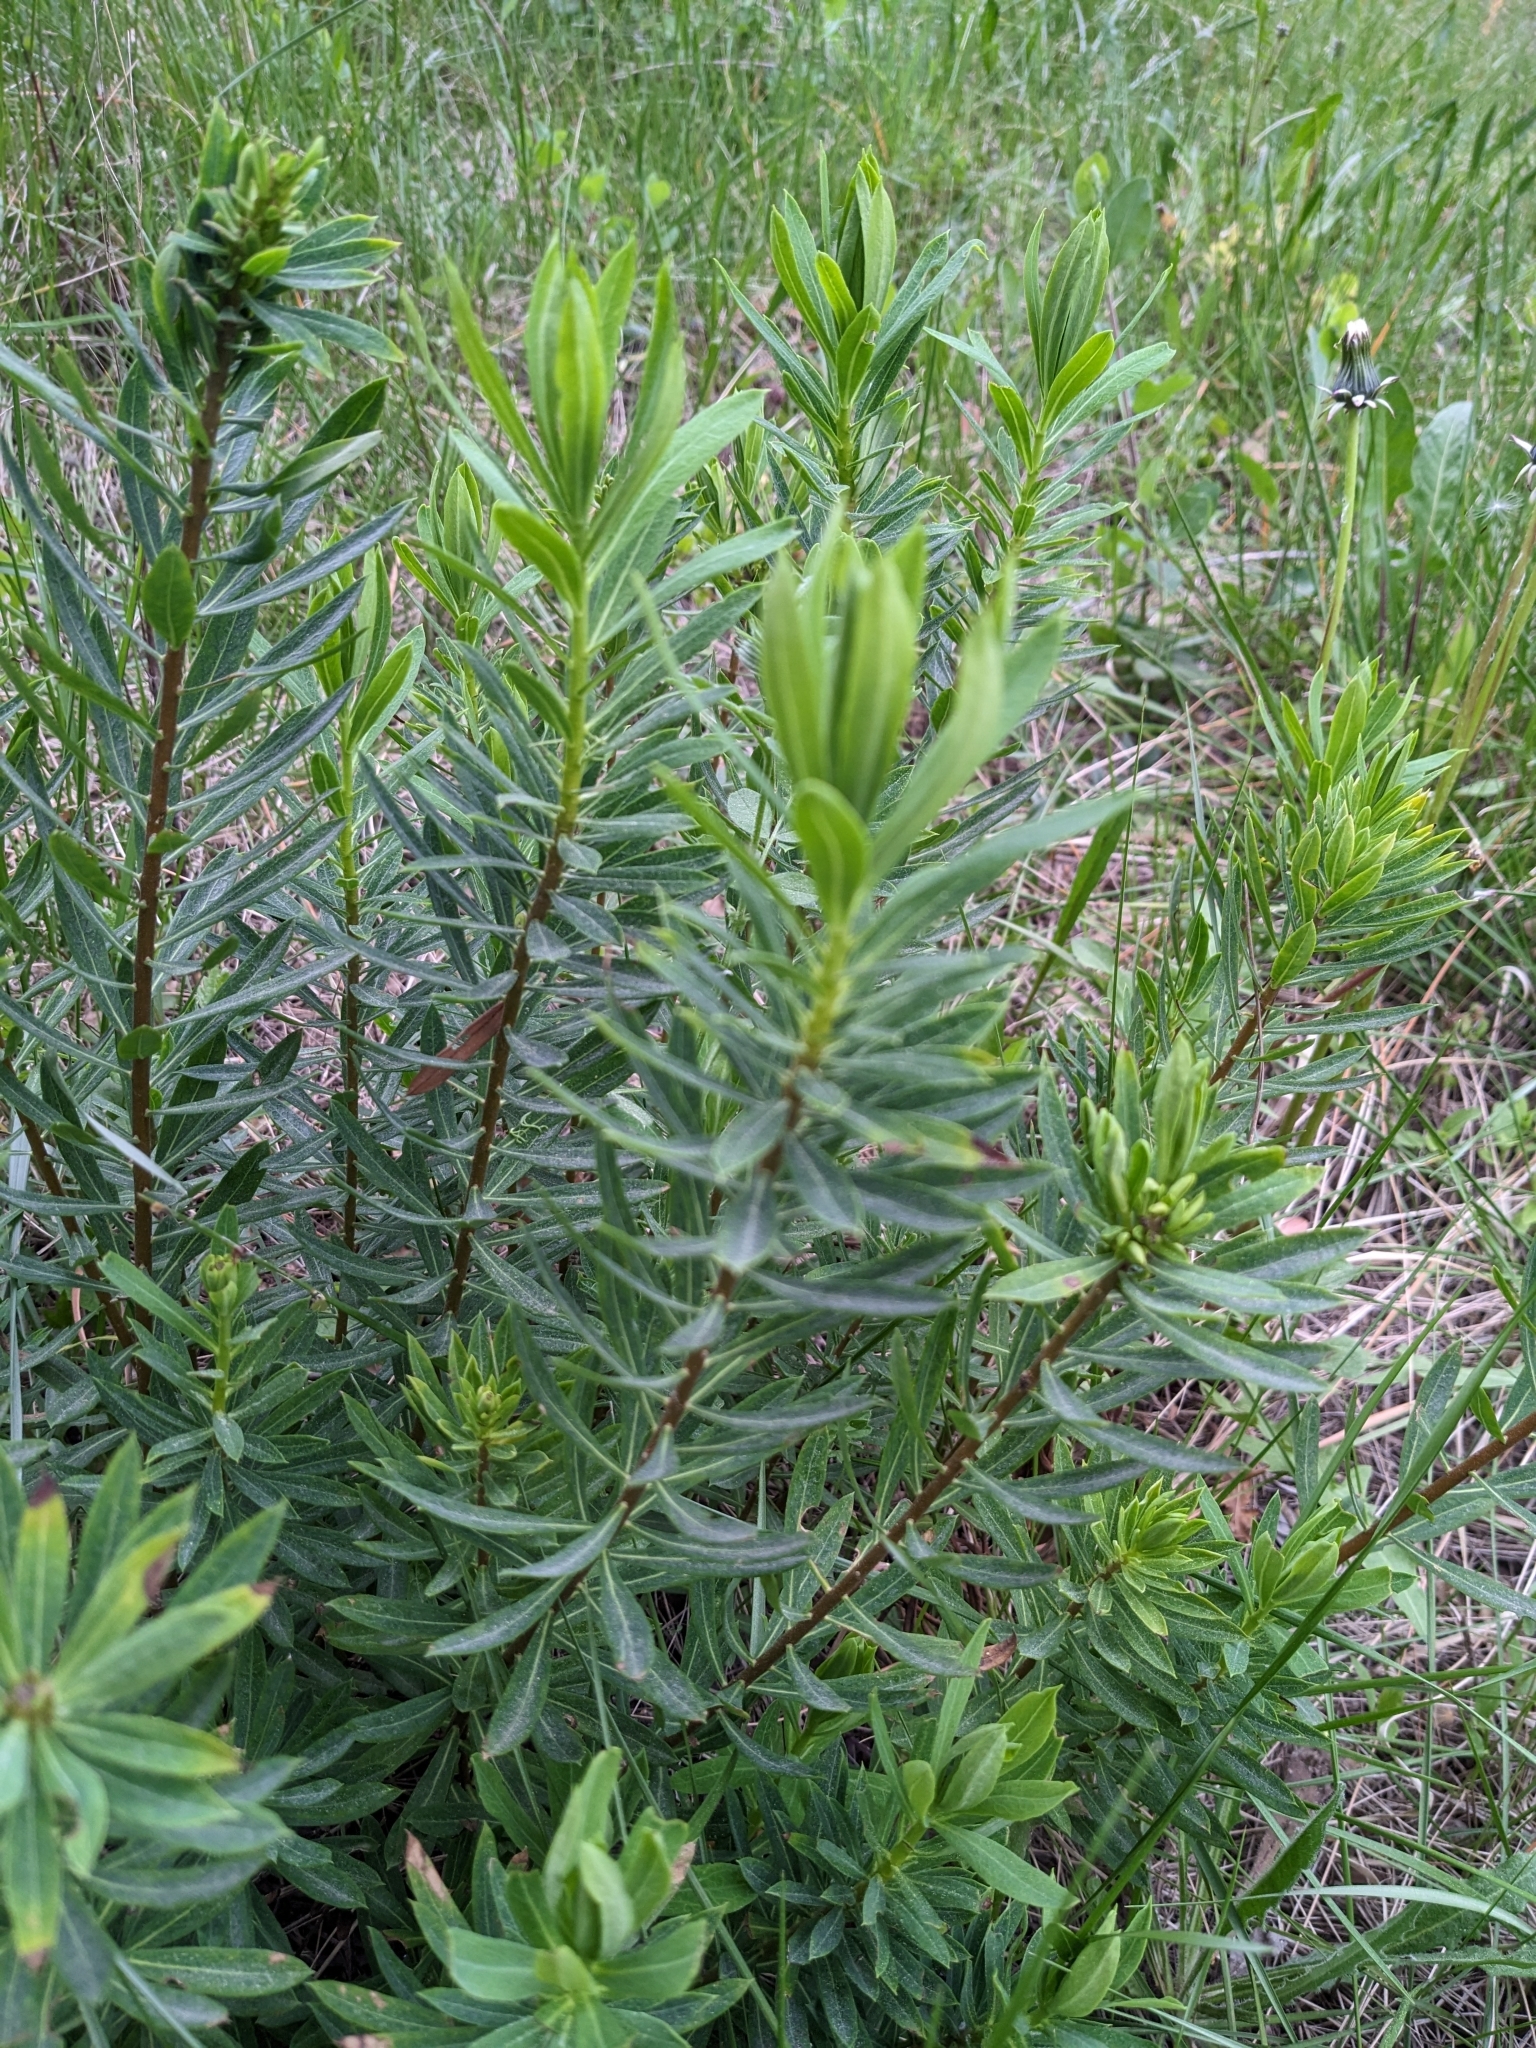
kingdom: Plantae
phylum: Tracheophyta
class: Magnoliopsida
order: Malvales
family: Thymelaeaceae
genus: Daphne
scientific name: Daphne gnidium
